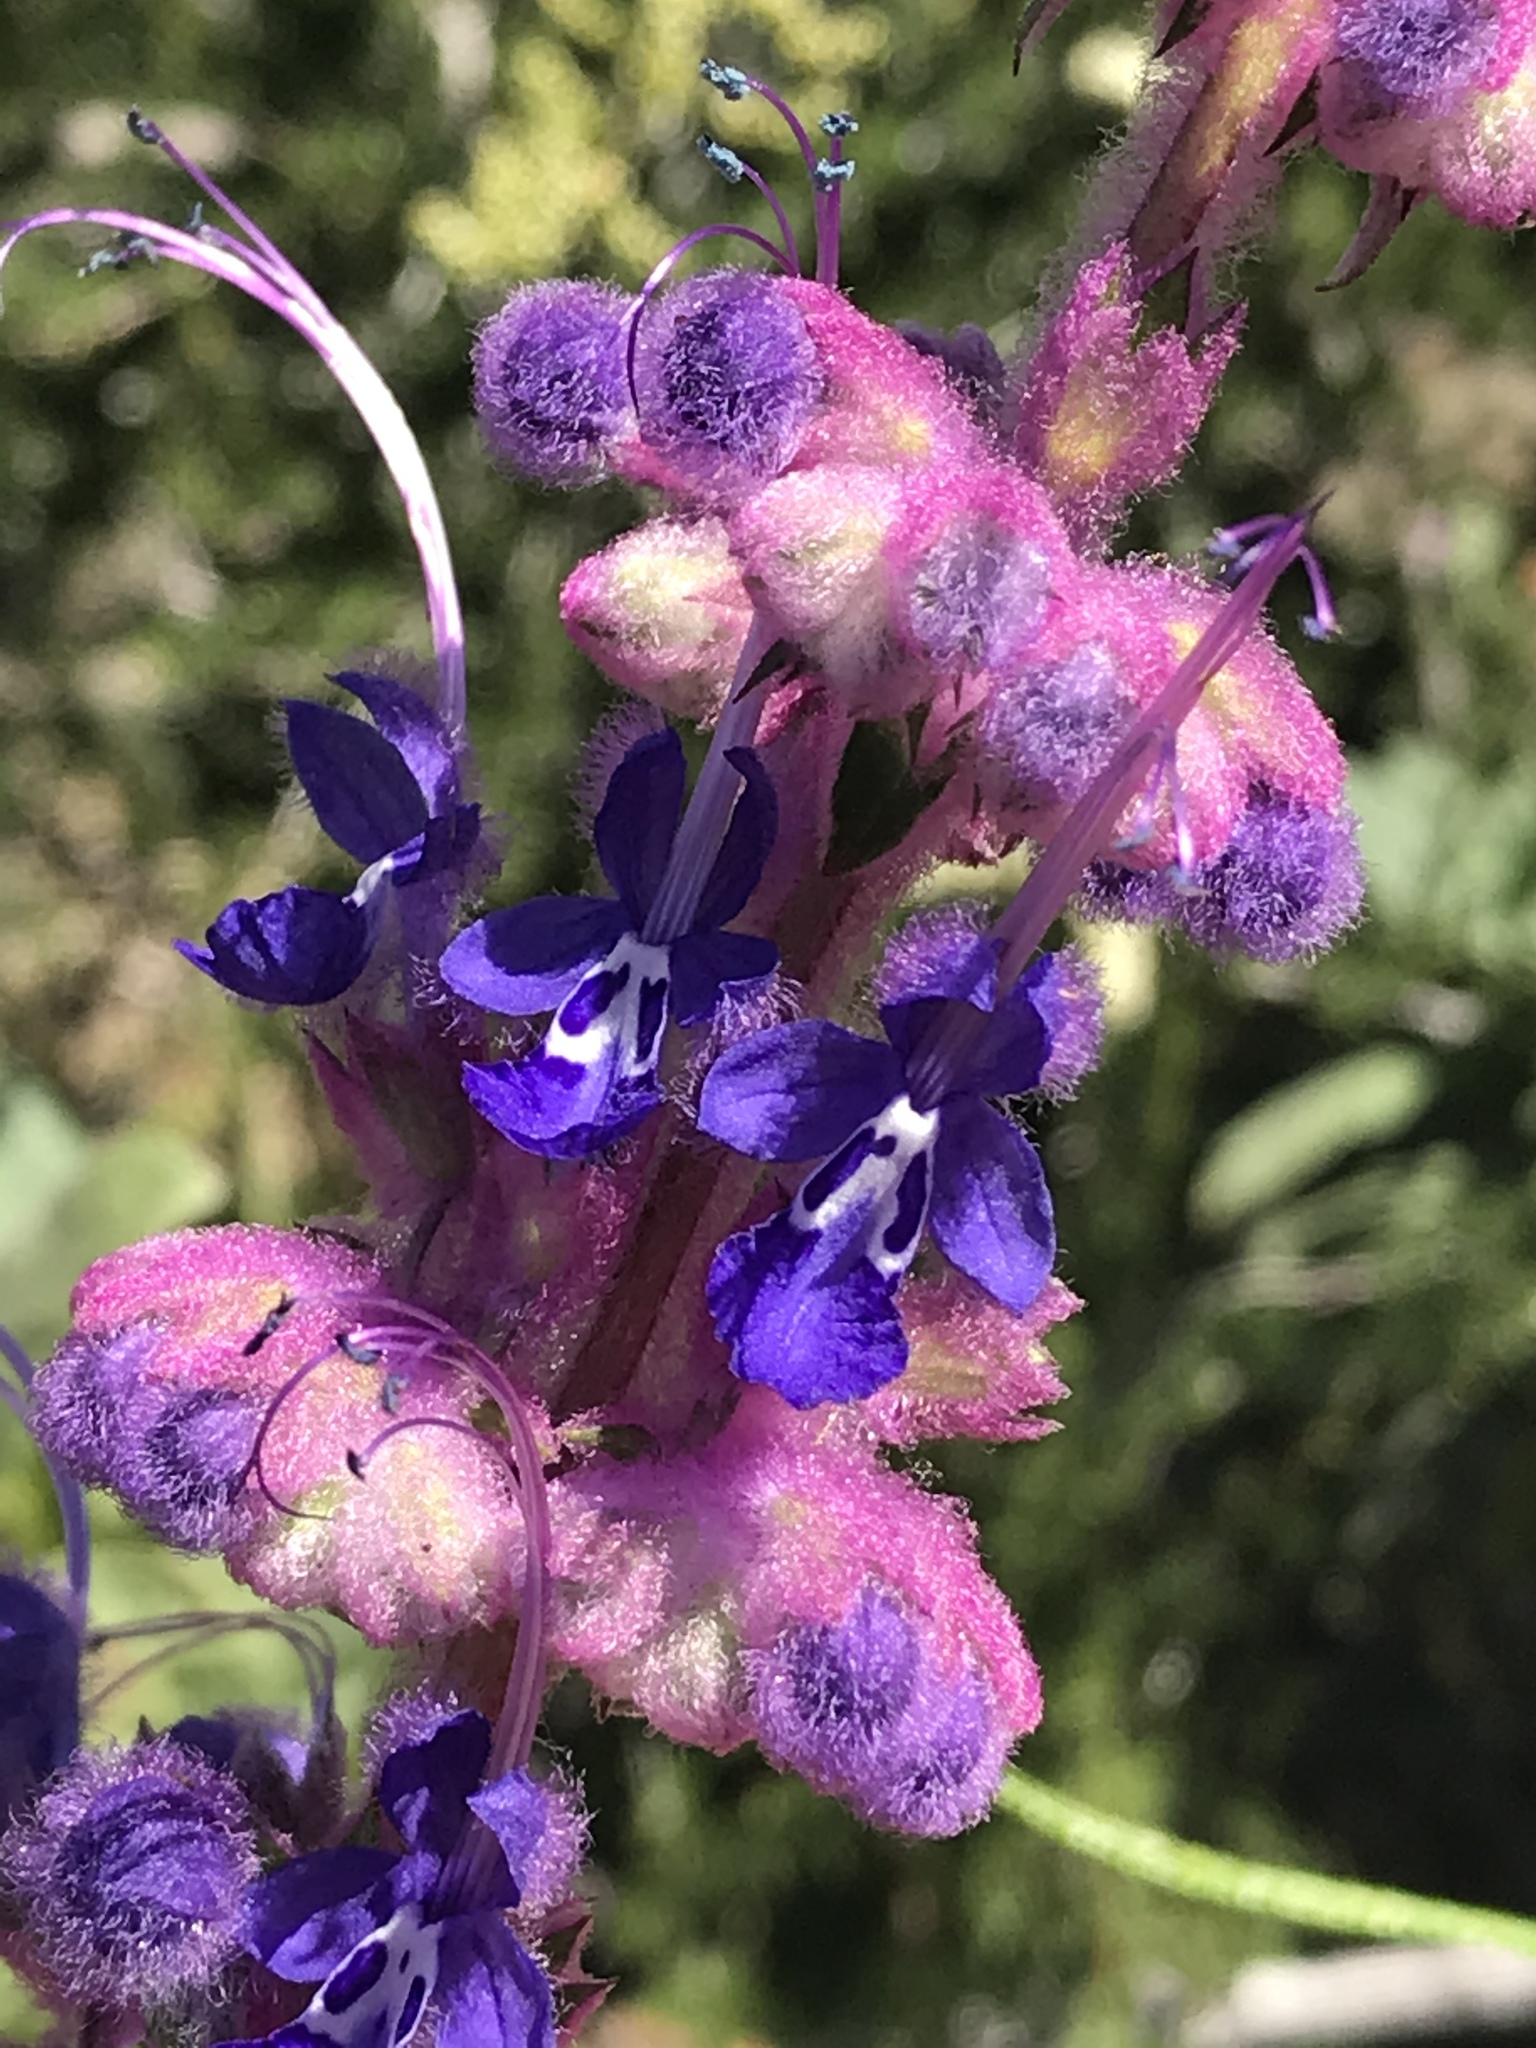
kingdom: Plantae
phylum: Tracheophyta
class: Magnoliopsida
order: Lamiales
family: Lamiaceae
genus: Trichostema
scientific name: Trichostema lanatum
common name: Woolly bluecurls
